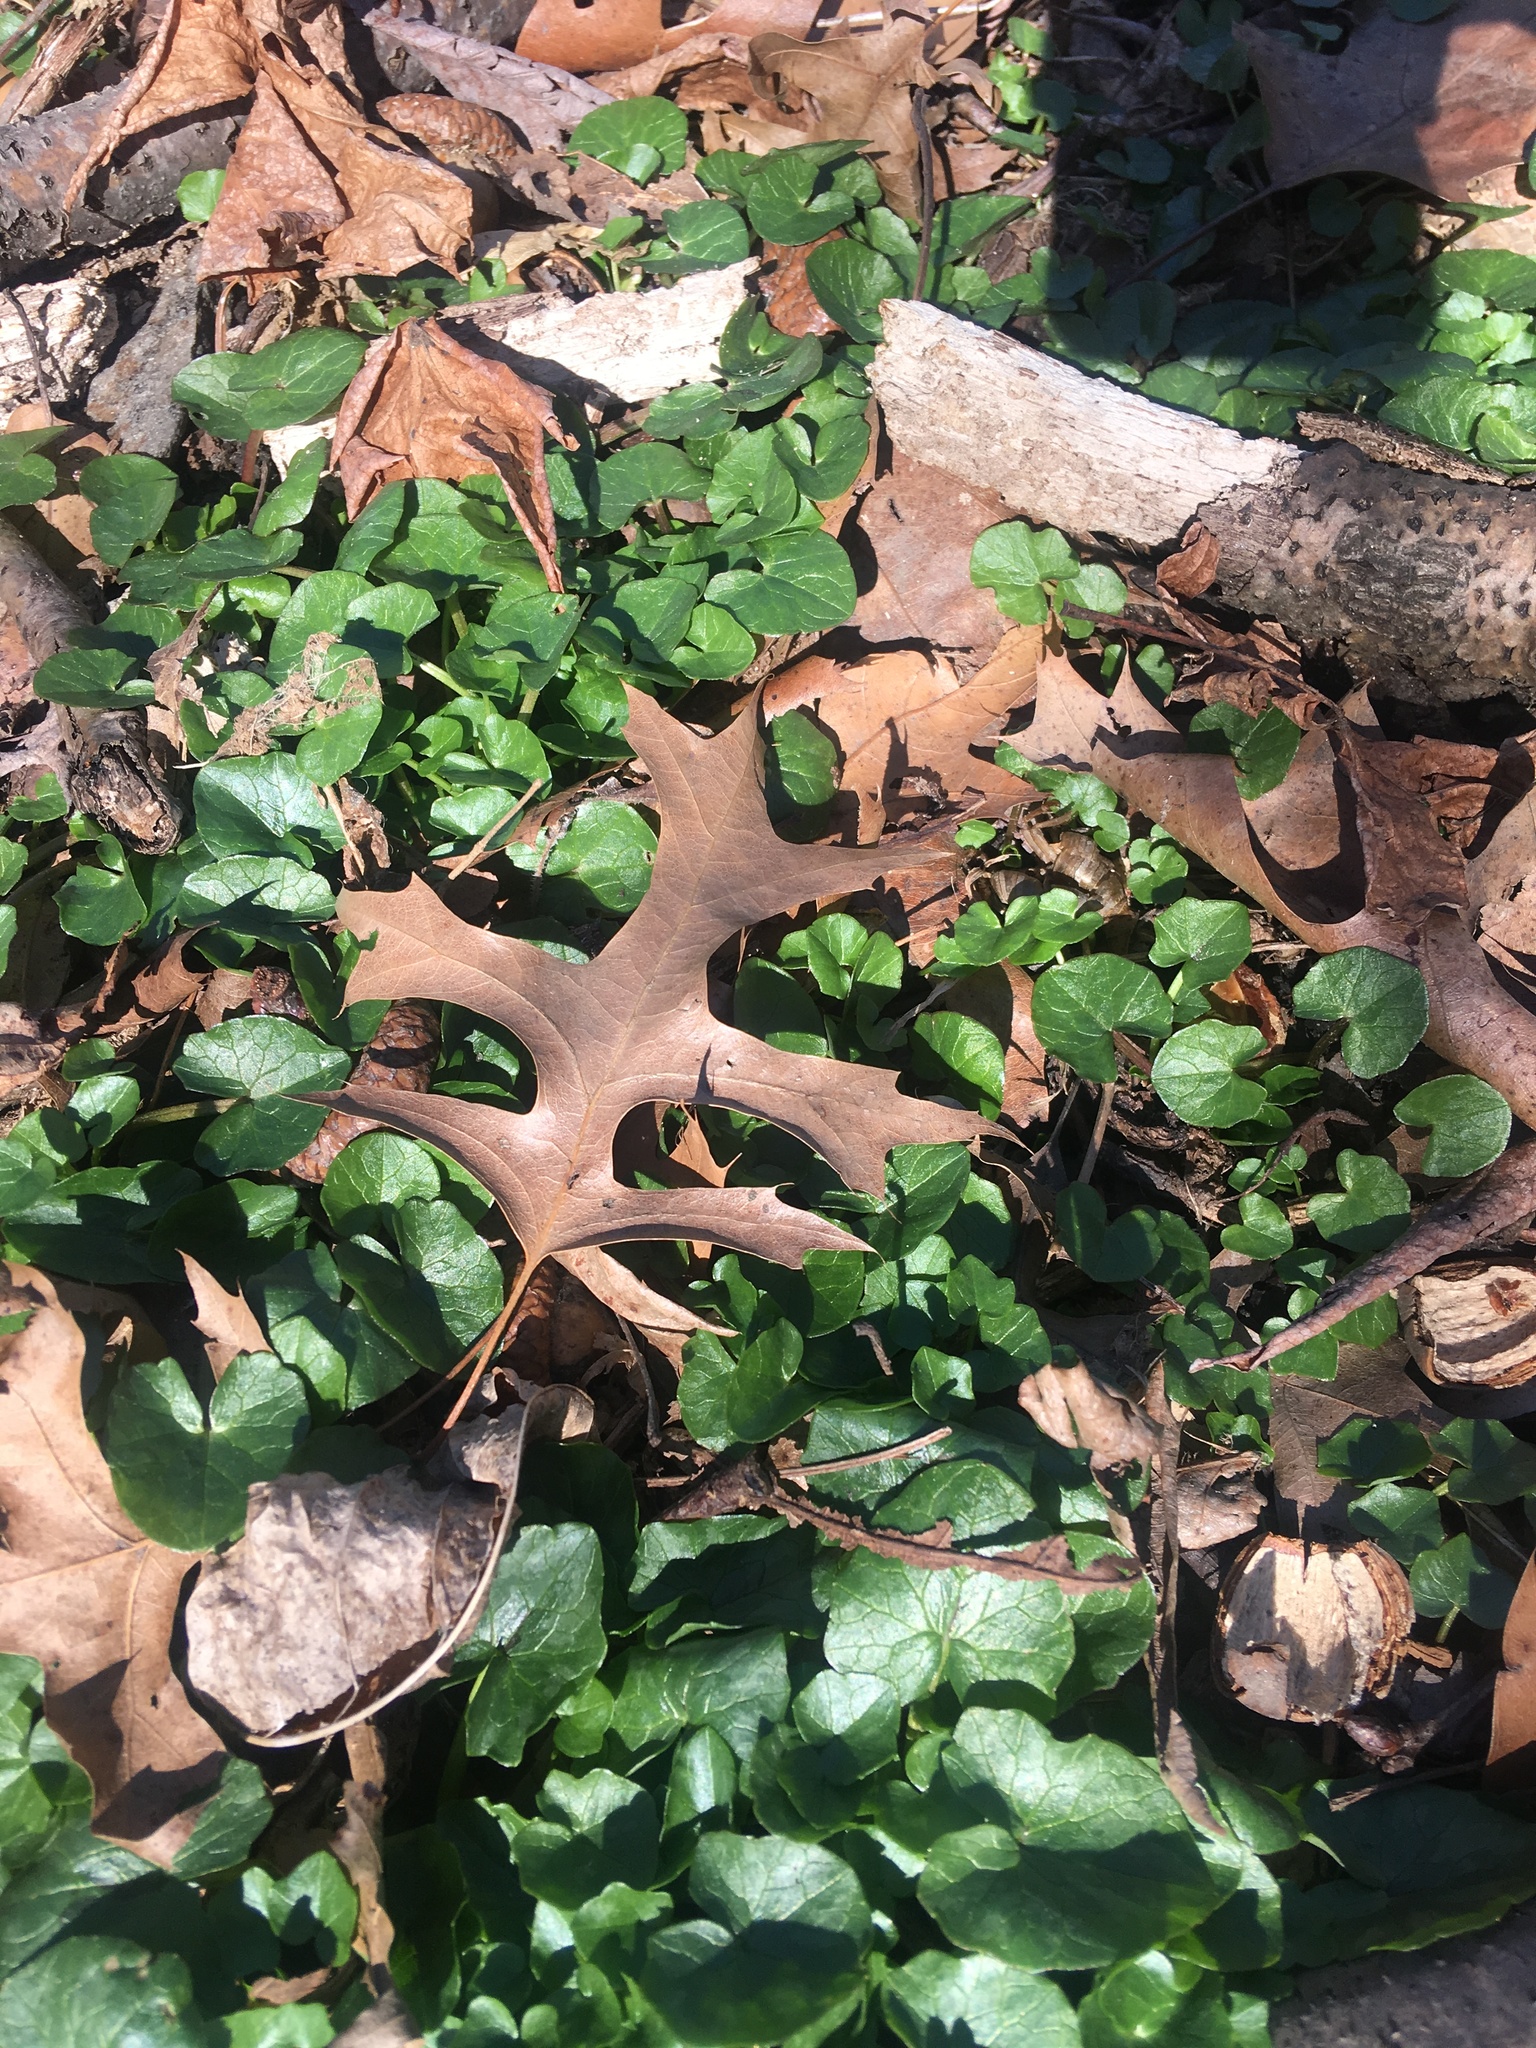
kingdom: Plantae
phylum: Tracheophyta
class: Magnoliopsida
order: Ranunculales
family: Ranunculaceae
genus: Ficaria
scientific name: Ficaria verna
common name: Lesser celandine
